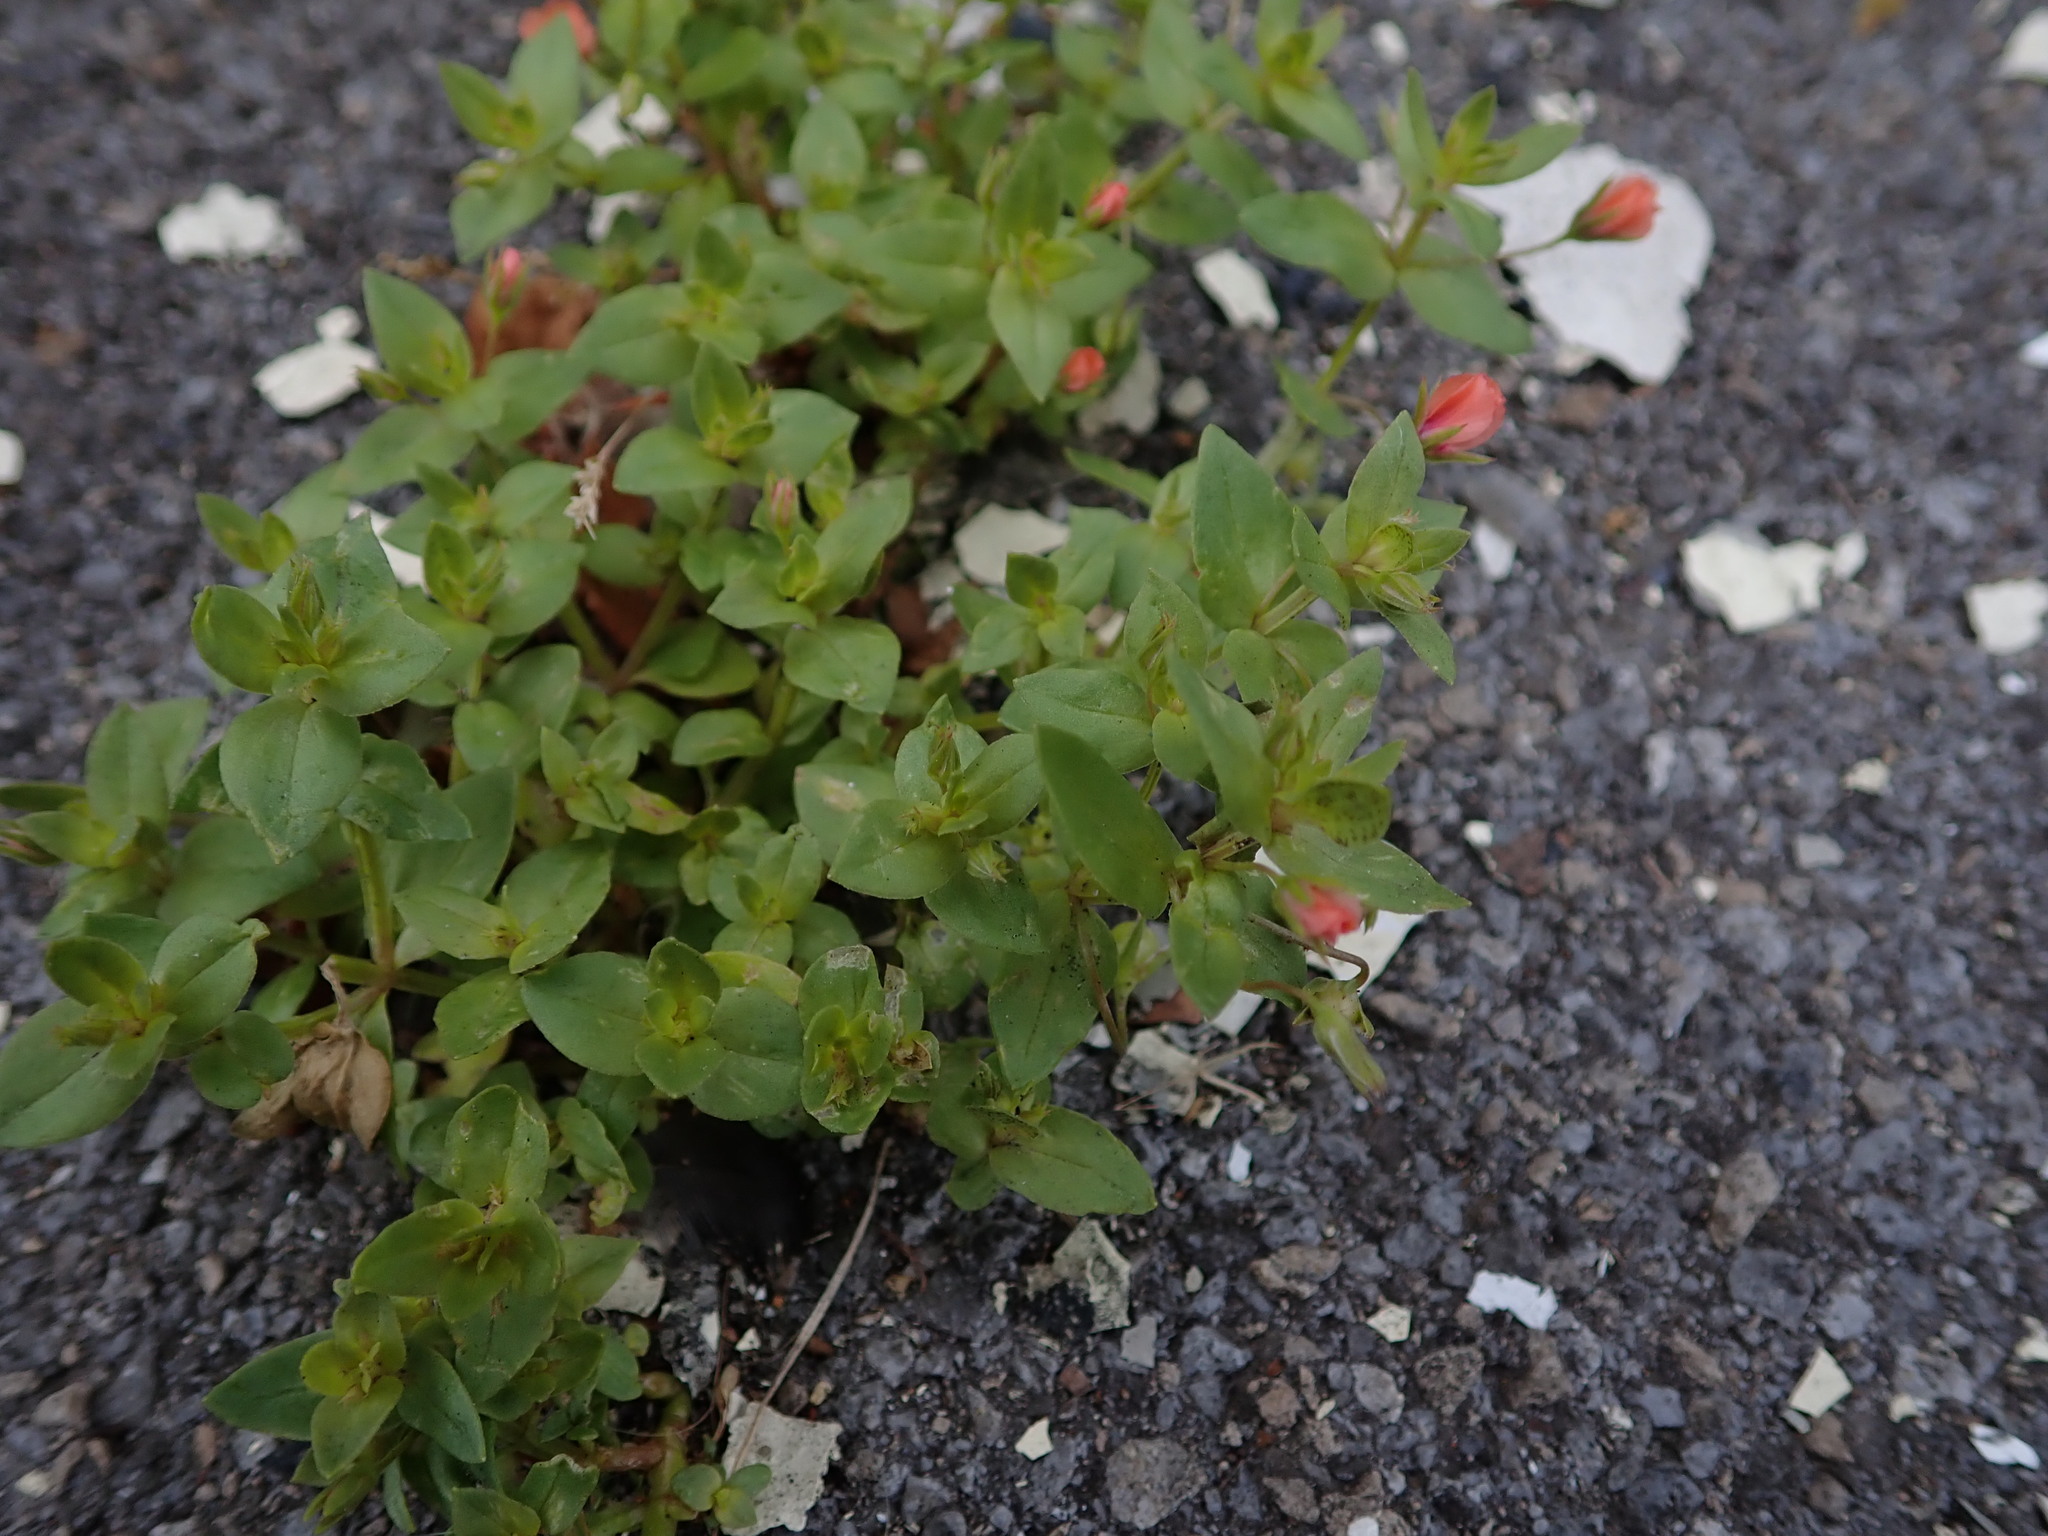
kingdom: Plantae
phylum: Tracheophyta
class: Magnoliopsida
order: Ericales
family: Primulaceae
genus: Lysimachia
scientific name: Lysimachia arvensis
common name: Scarlet pimpernel
